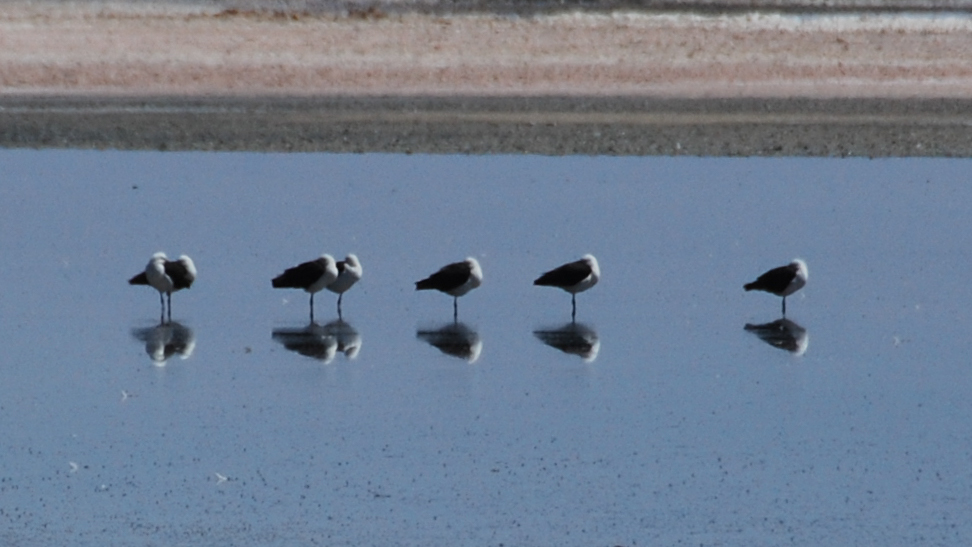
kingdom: Animalia
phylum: Chordata
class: Aves
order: Charadriiformes
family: Recurvirostridae
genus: Recurvirostra
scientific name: Recurvirostra andina
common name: Andean avocet
